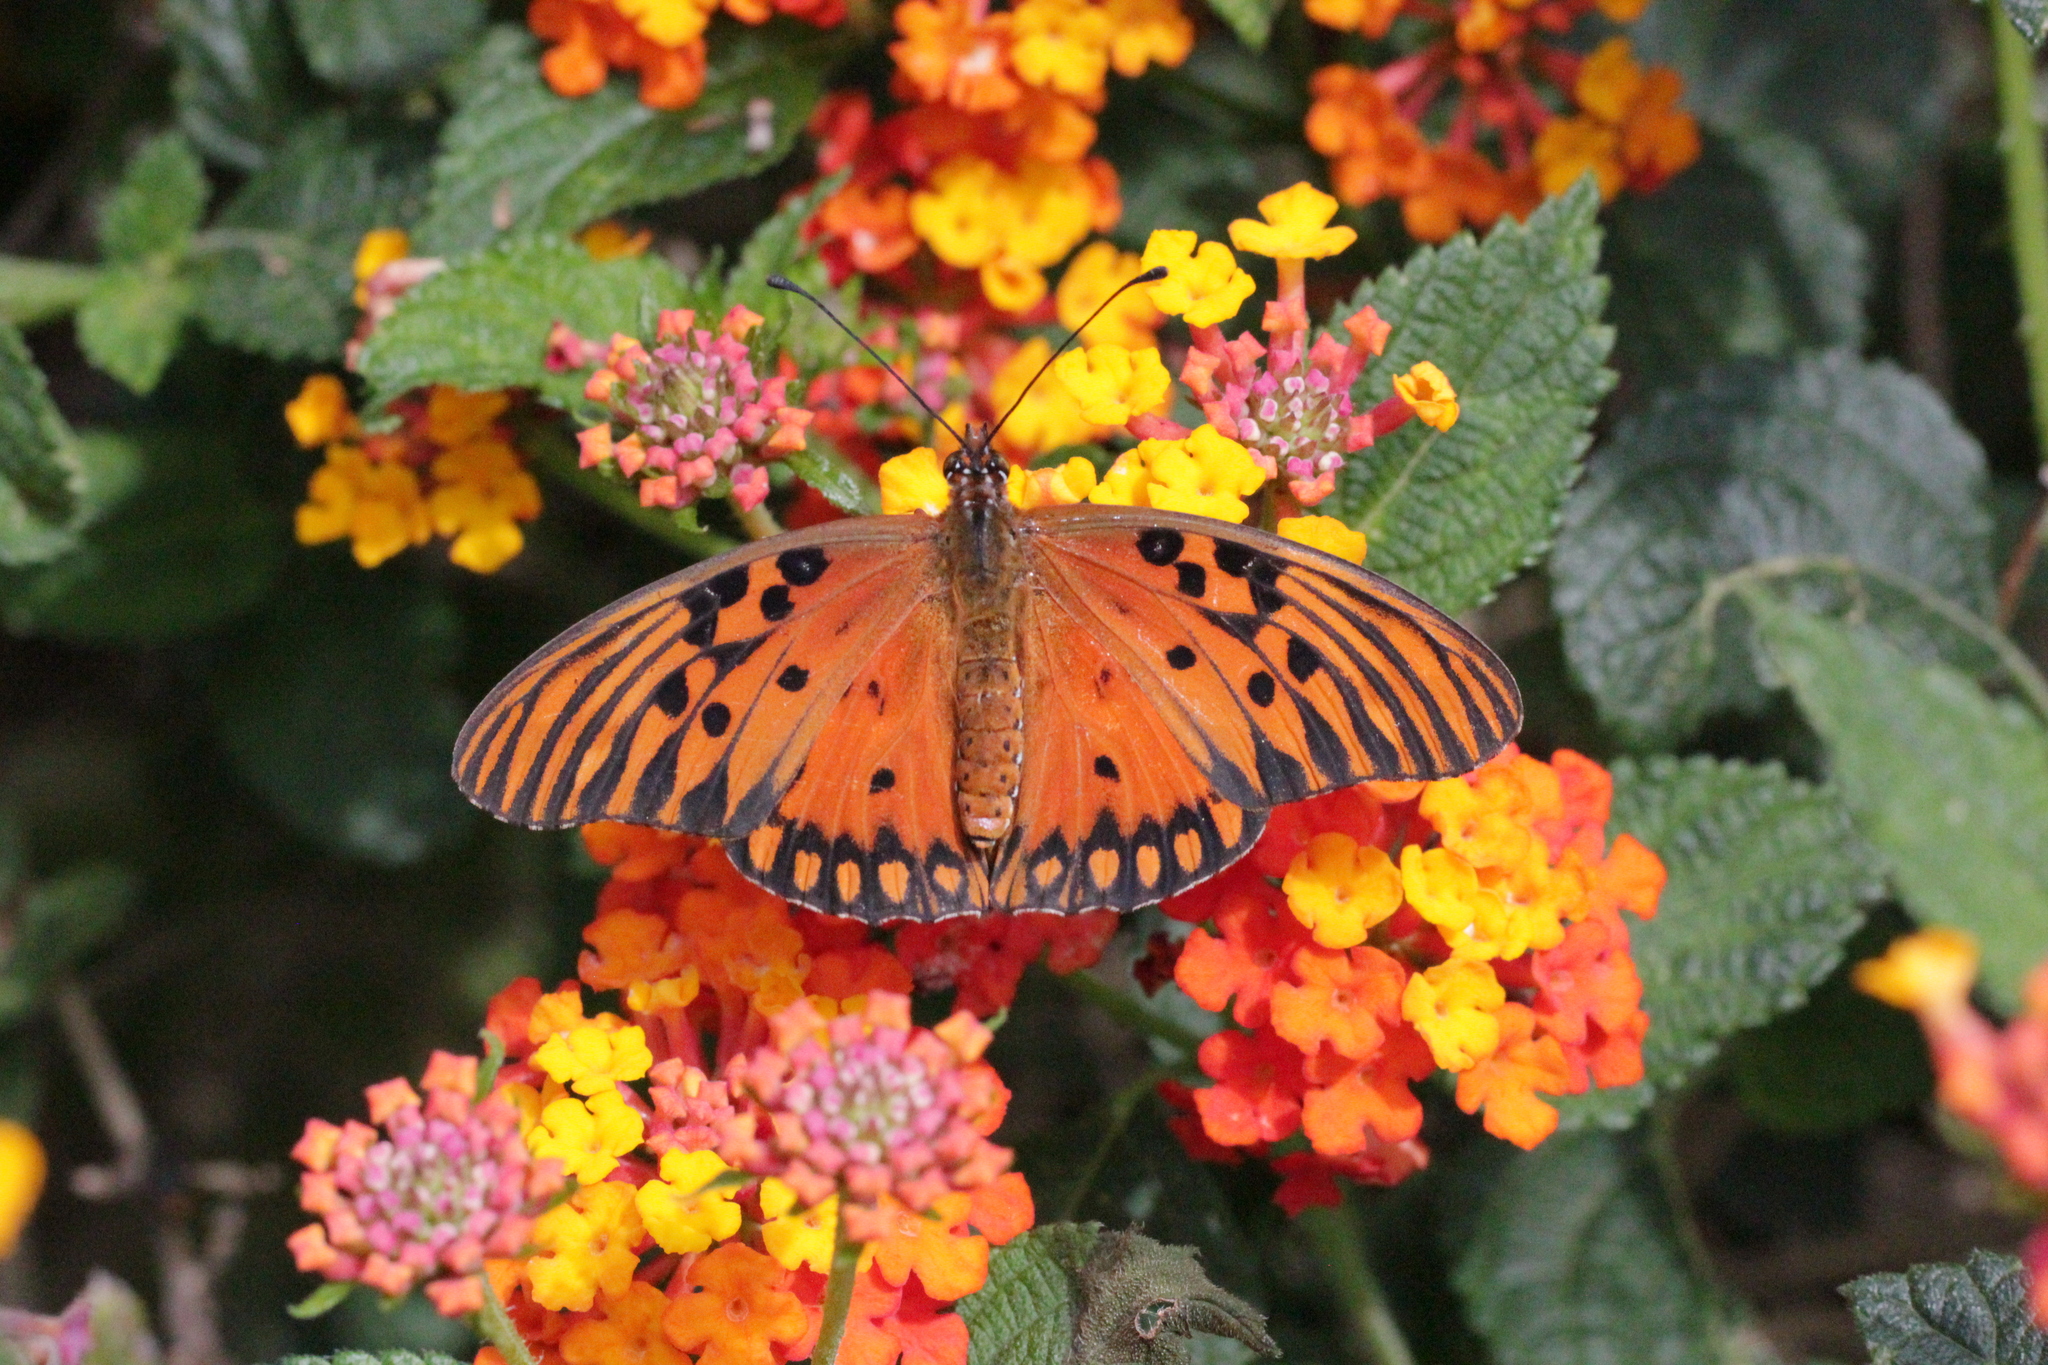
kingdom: Animalia
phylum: Arthropoda
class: Insecta
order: Lepidoptera
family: Nymphalidae
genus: Dione
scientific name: Dione vanillae
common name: Gulf fritillary
